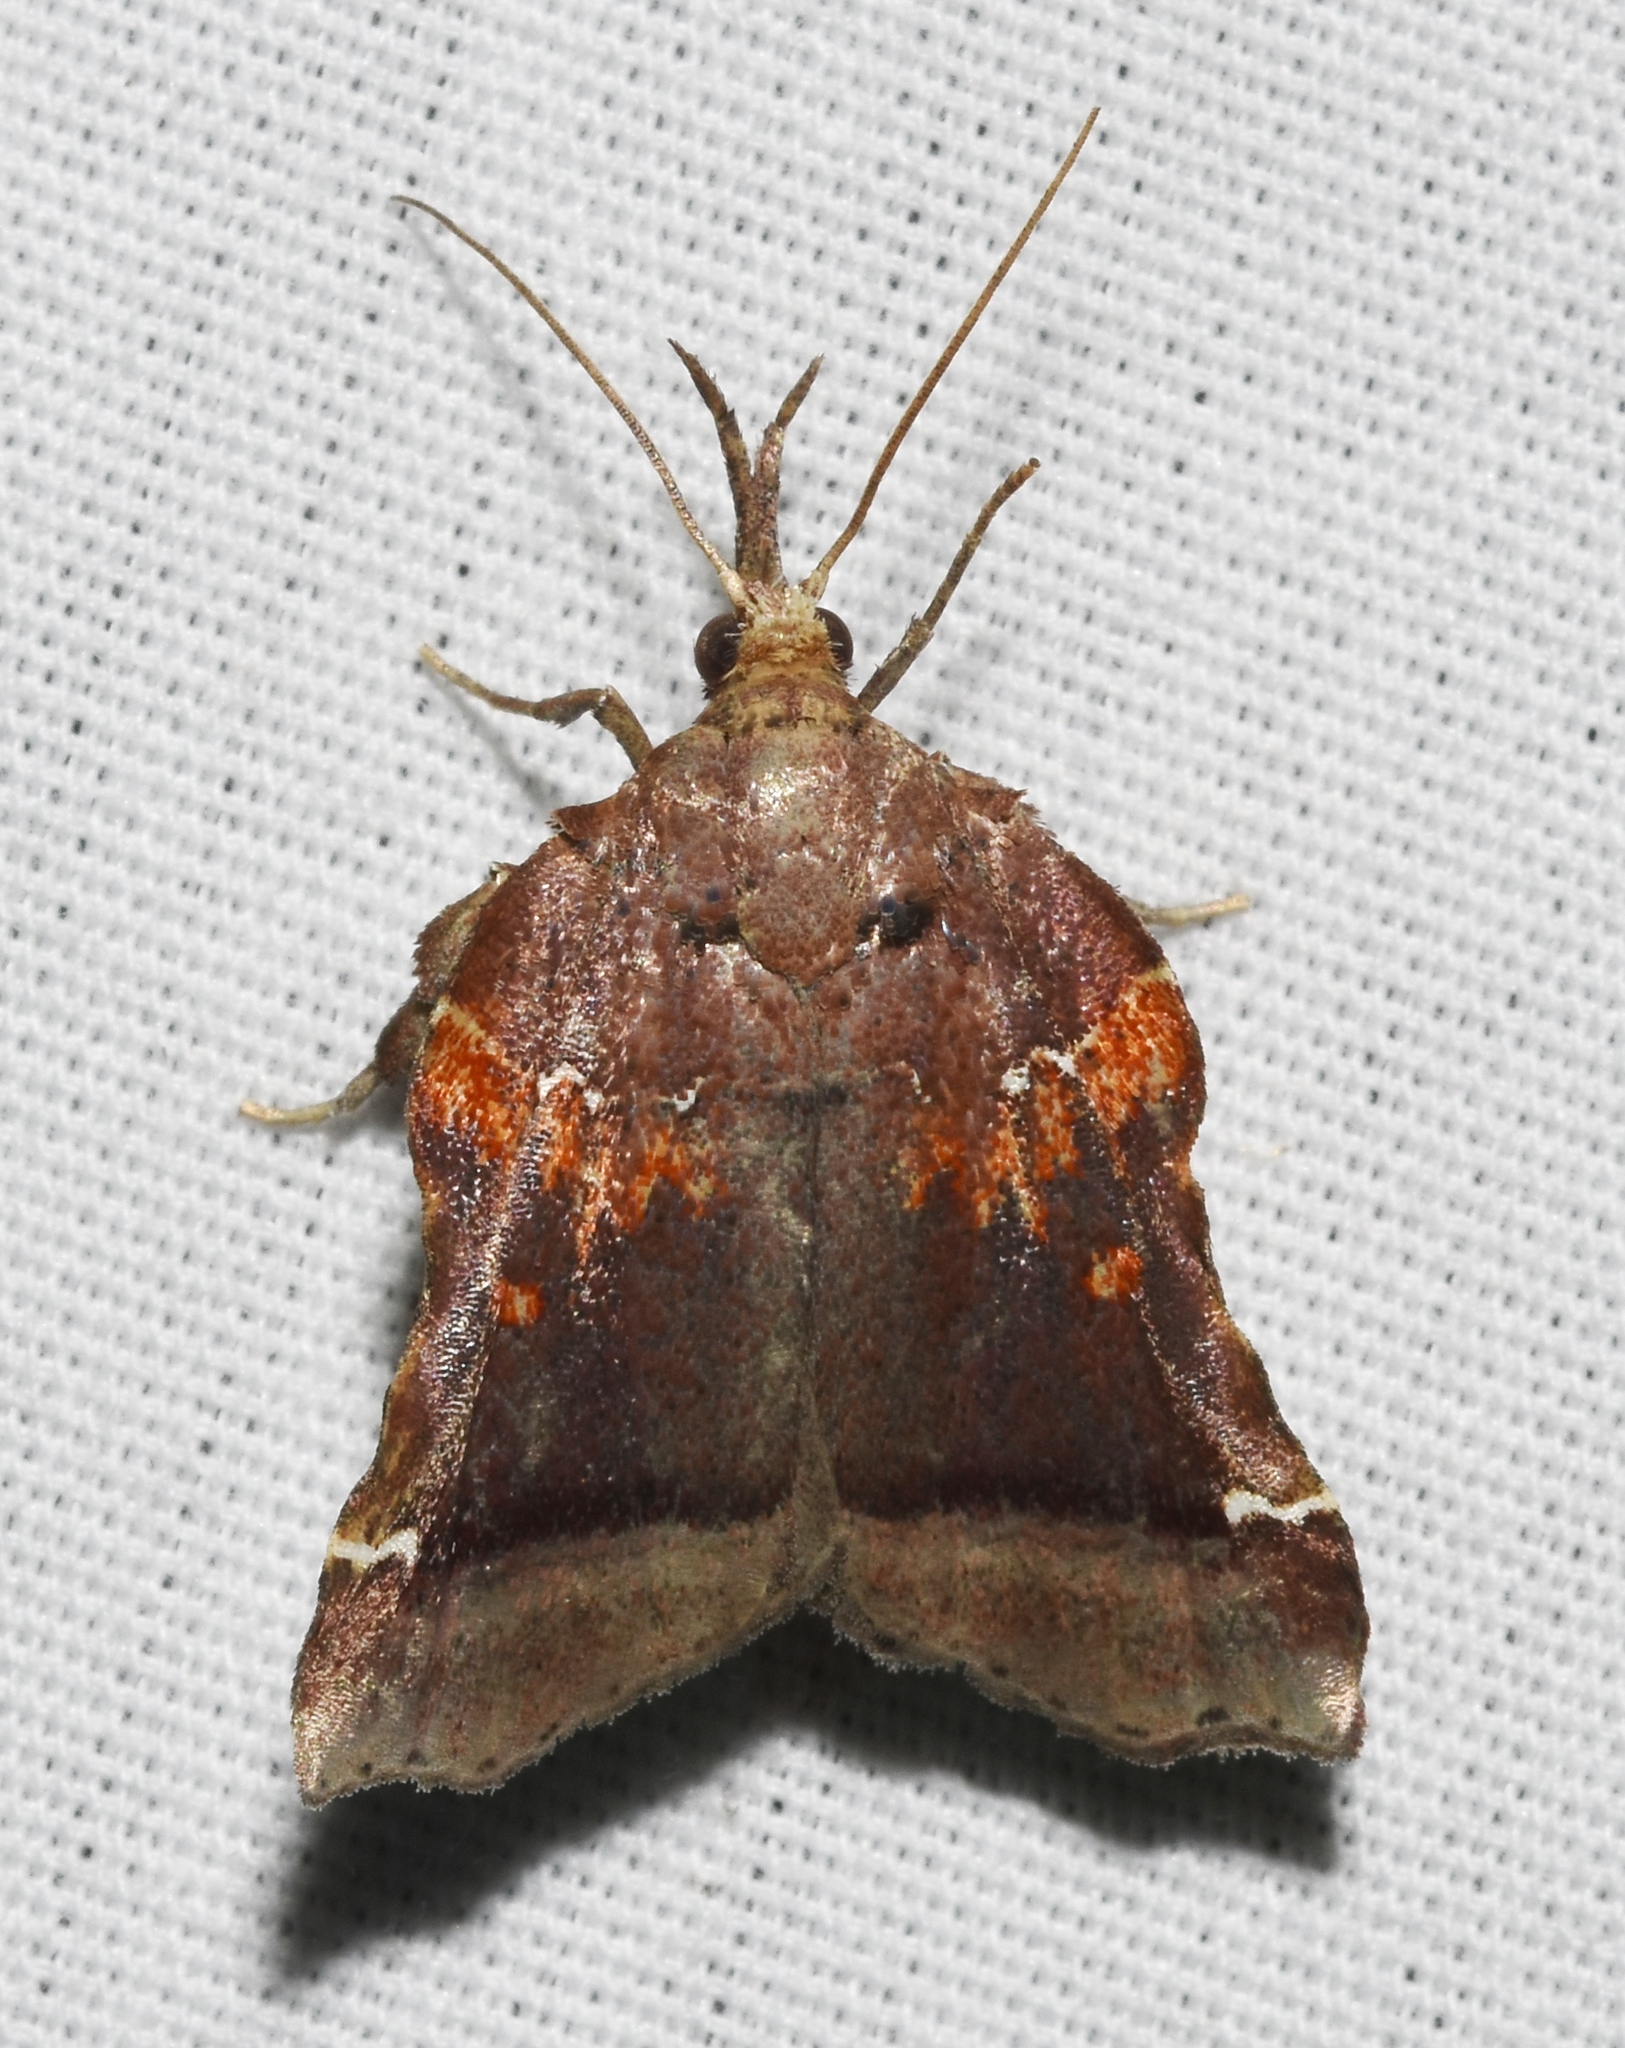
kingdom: Animalia
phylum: Arthropoda
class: Insecta
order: Lepidoptera
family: Pyralidae
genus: Clydonopteron
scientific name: Clydonopteron sacculana
